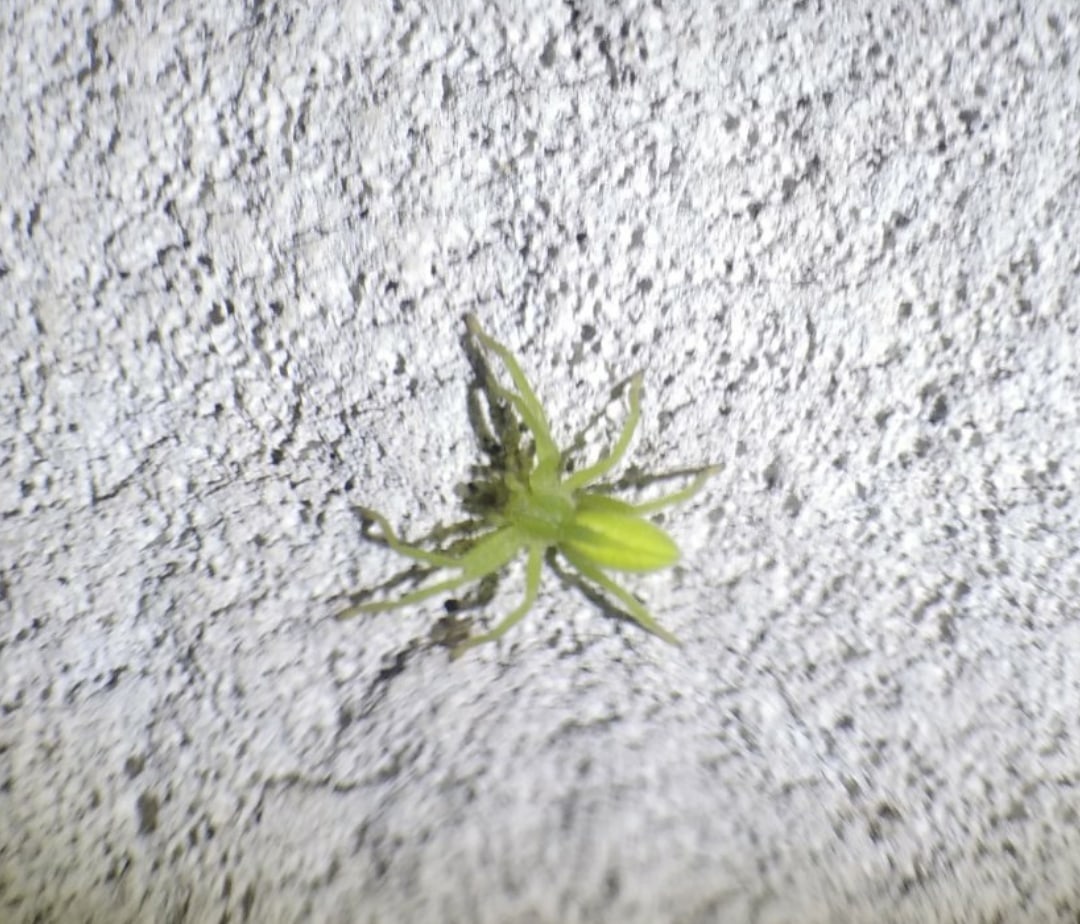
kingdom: Animalia
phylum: Arthropoda
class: Arachnida
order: Araneae
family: Sparassidae
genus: Micrommata
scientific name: Micrommata virescens
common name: Green spider
